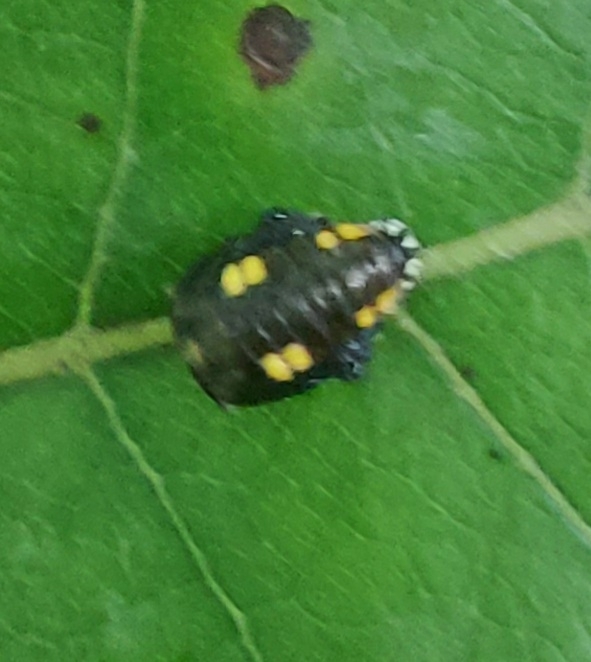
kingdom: Animalia
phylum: Arthropoda
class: Insecta
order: Coleoptera
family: Coccinellidae
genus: Halyzia
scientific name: Halyzia sedecimguttata
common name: Orange ladybird
